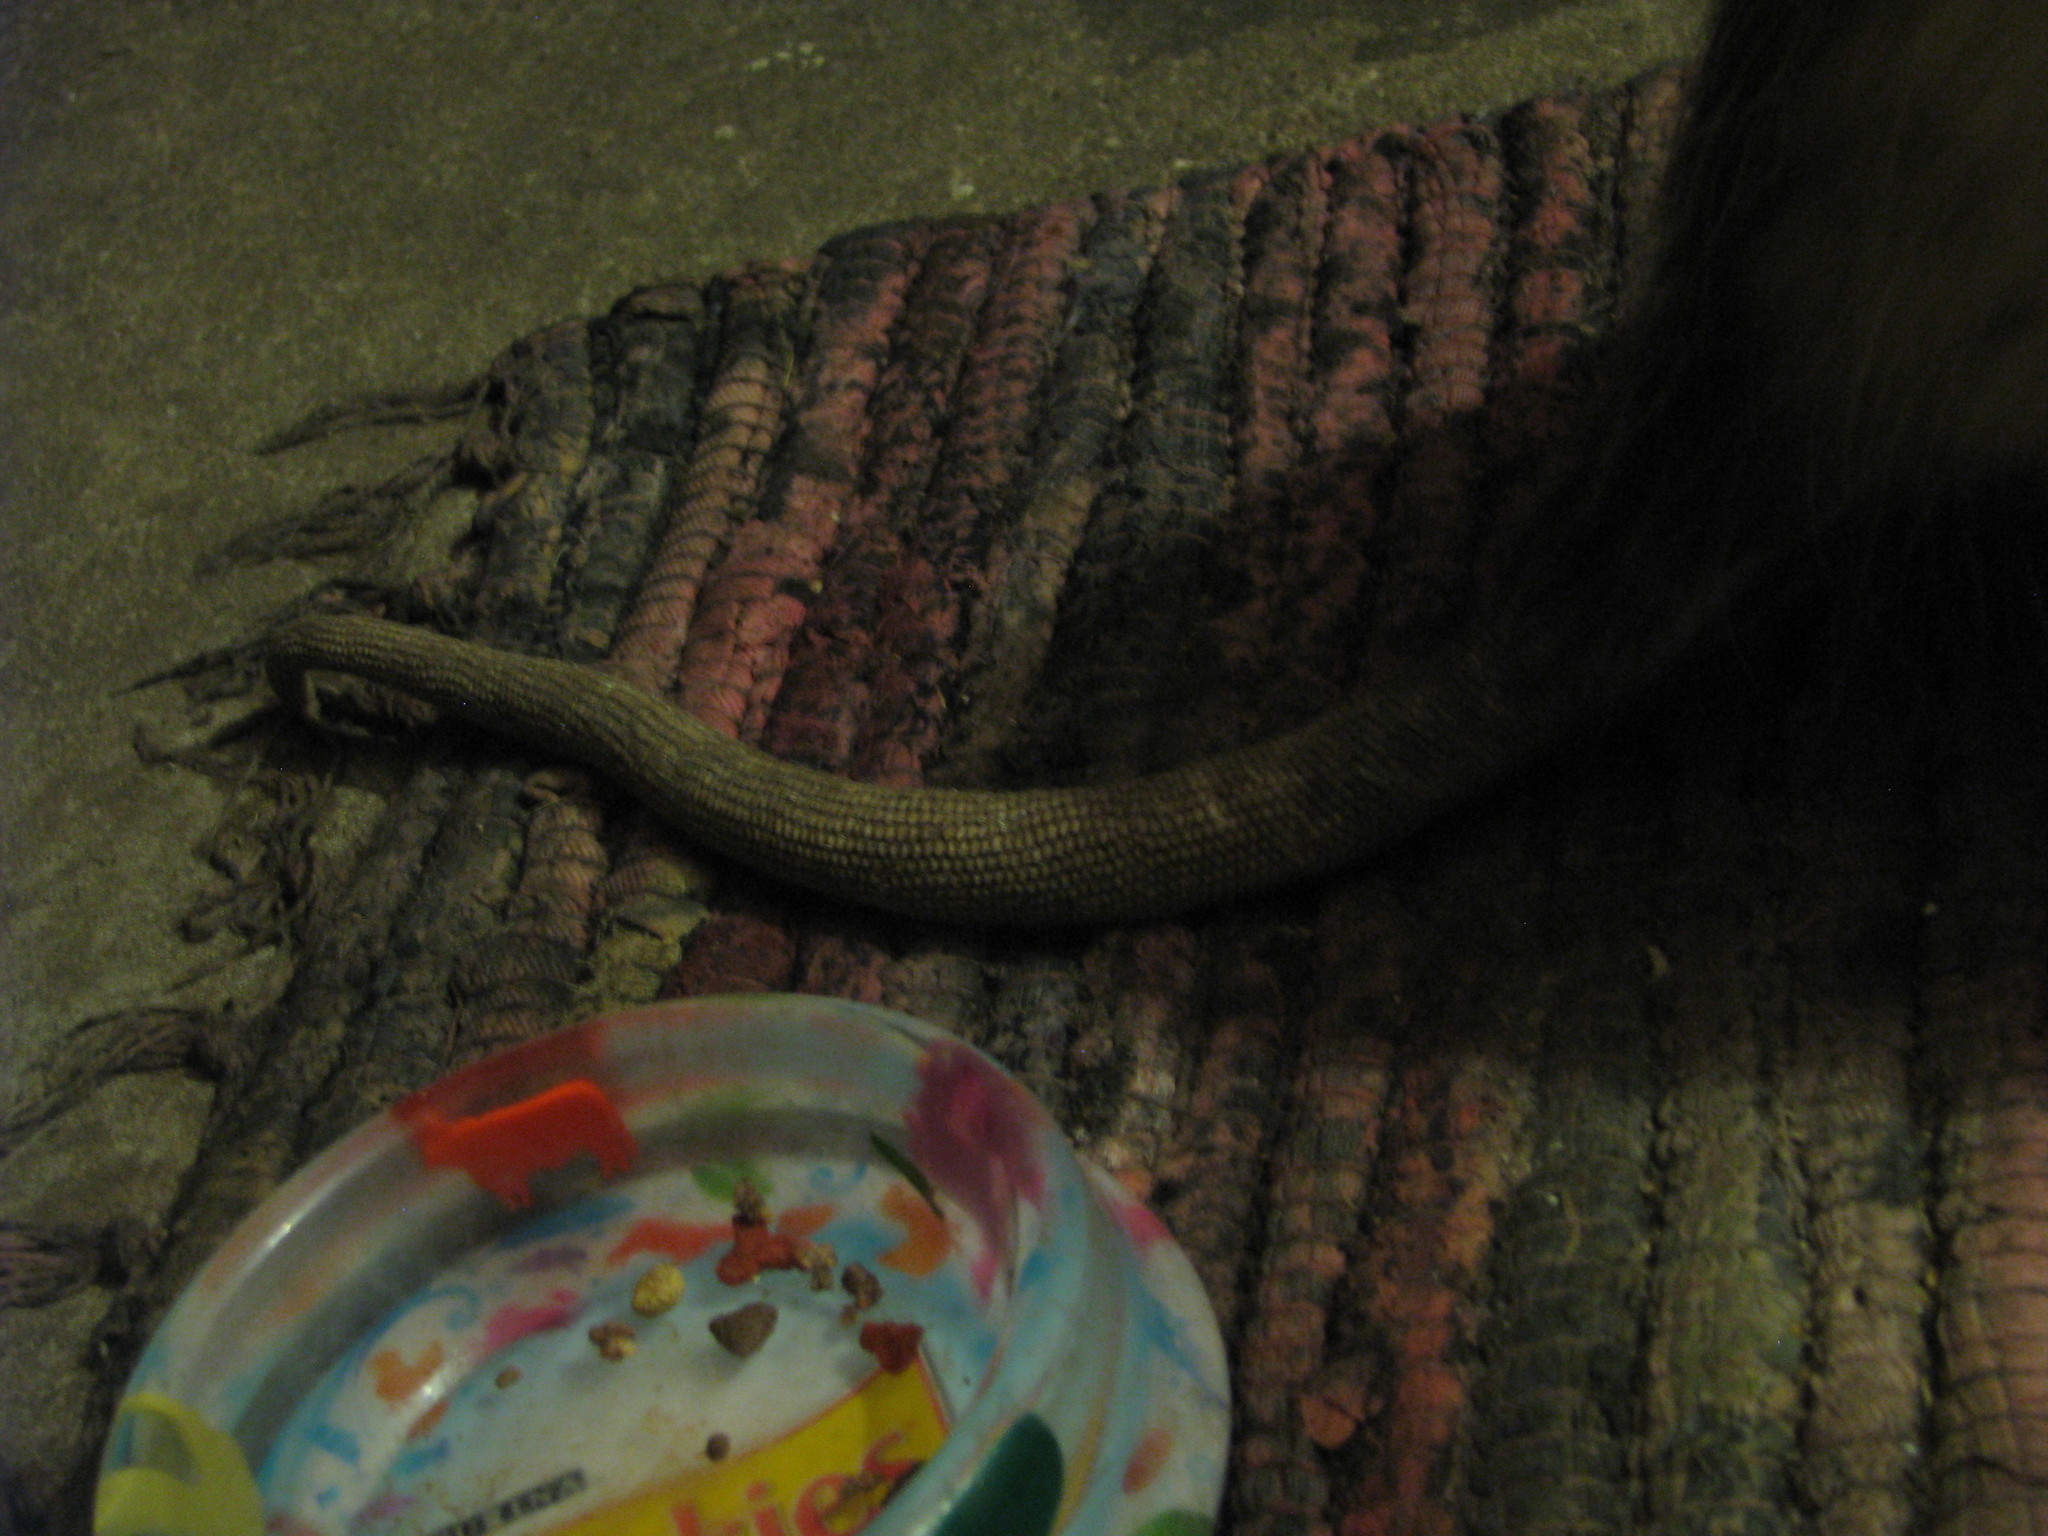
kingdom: Animalia
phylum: Chordata
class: Mammalia
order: Didelphimorphia
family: Didelphidae
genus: Didelphis
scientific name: Didelphis virginiana
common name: Virginia opossum
